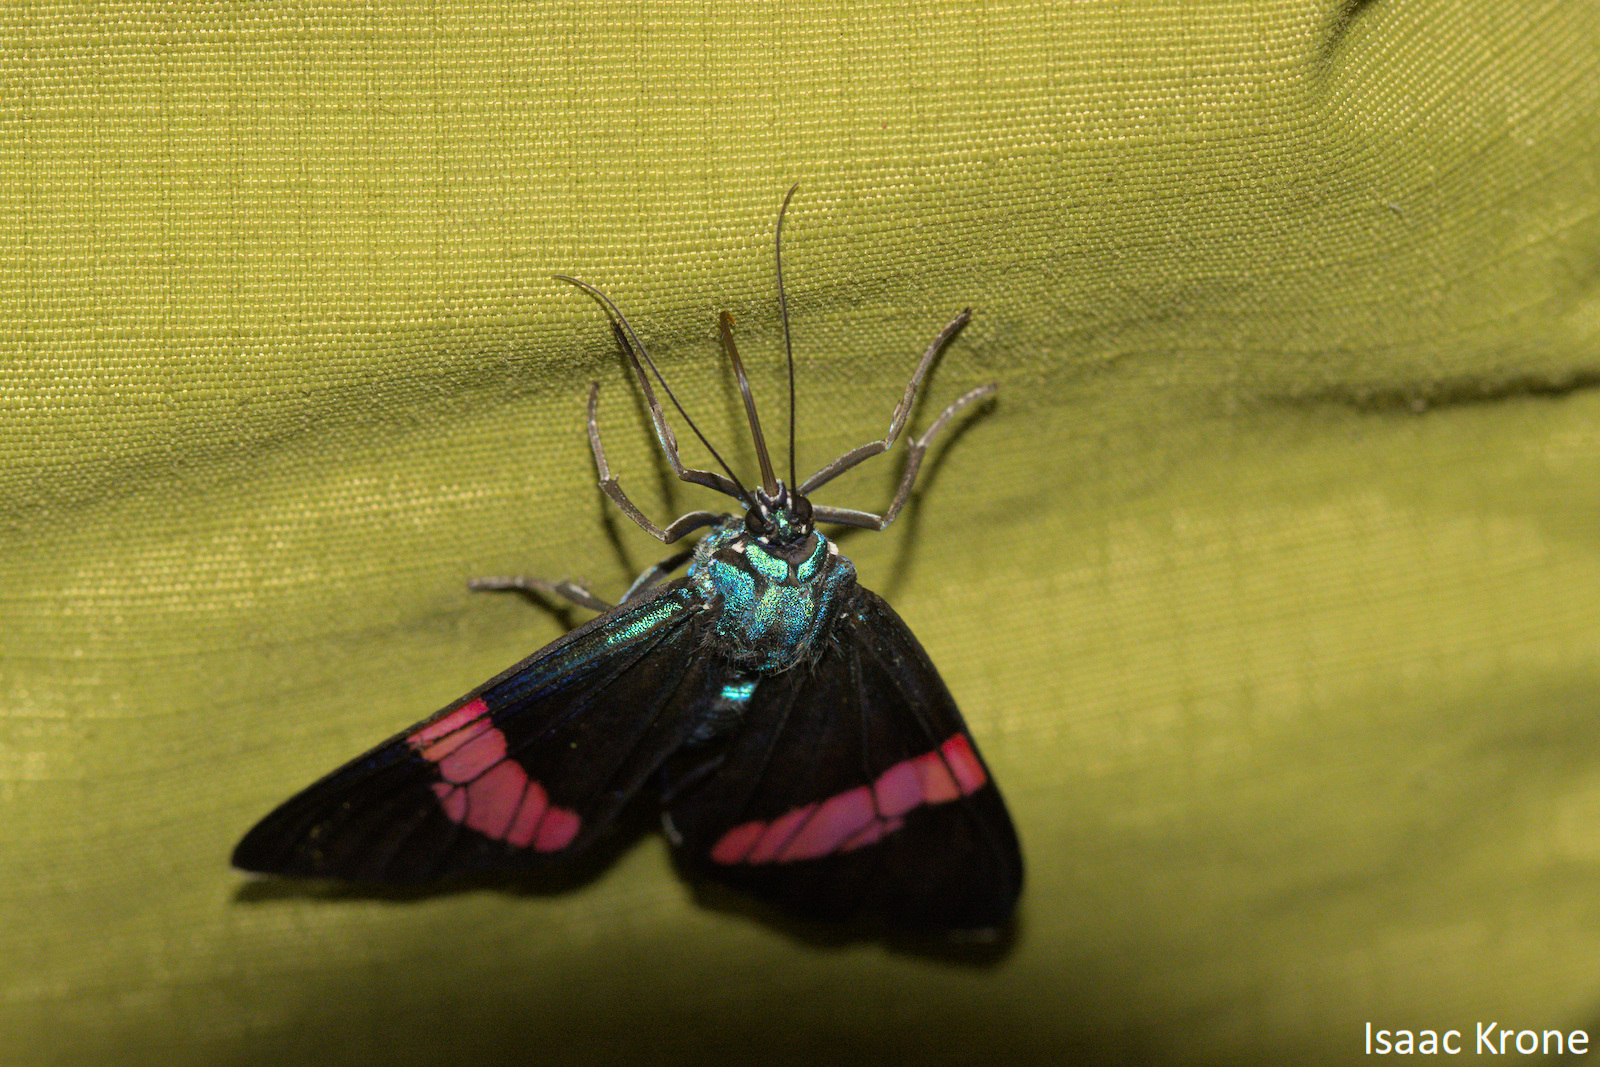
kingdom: Animalia
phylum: Arthropoda
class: Insecta
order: Lepidoptera
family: Erebidae
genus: Hypocrita
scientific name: Hypocrita temperata
